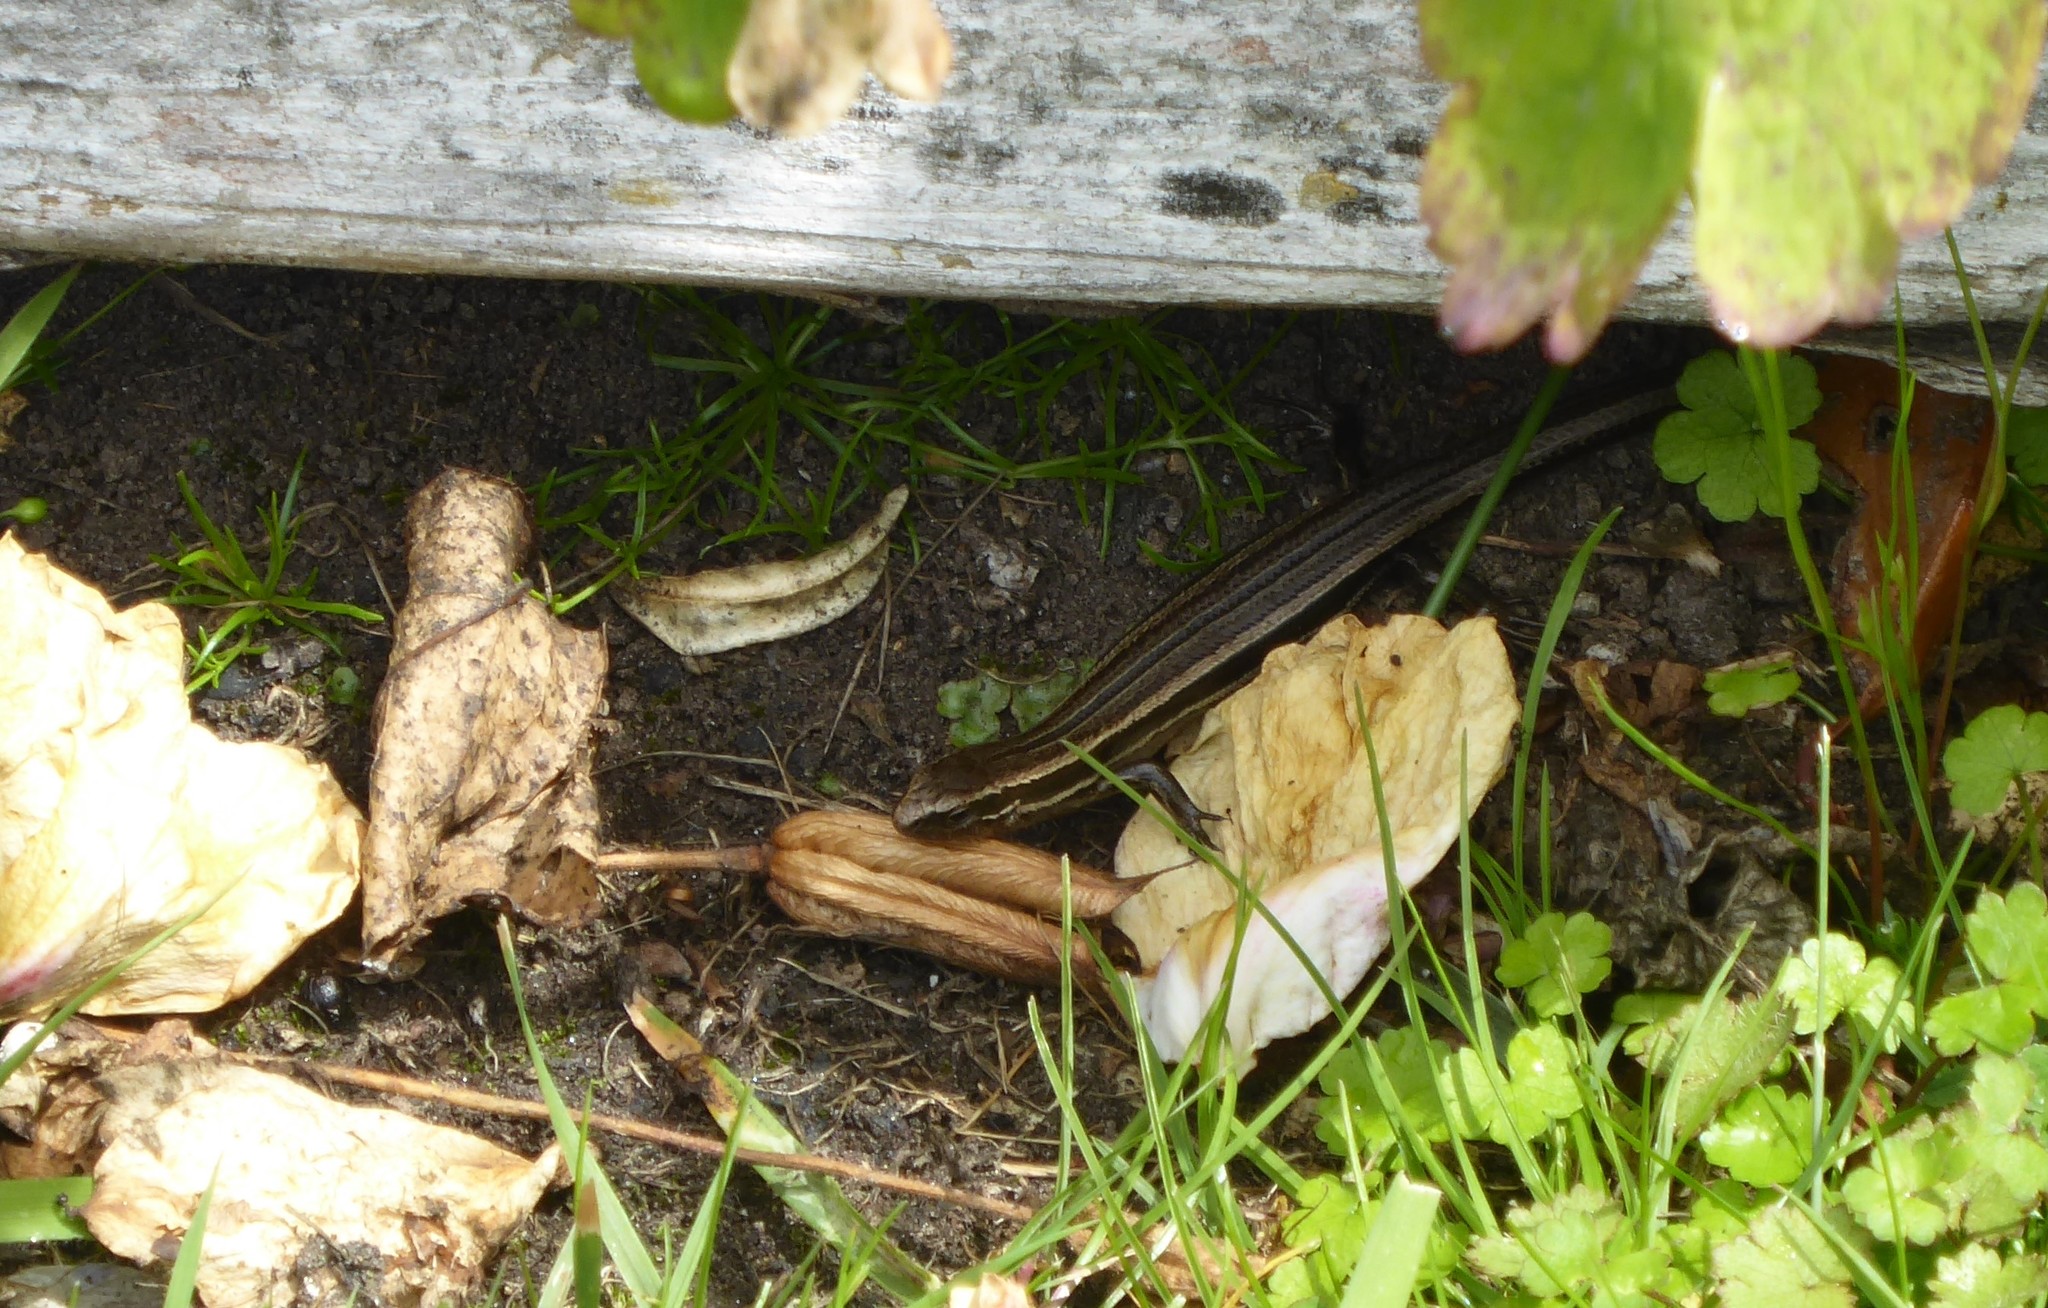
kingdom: Animalia
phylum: Chordata
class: Squamata
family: Scincidae
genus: Oligosoma
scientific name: Oligosoma polychroma
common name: Common new zealand skink
